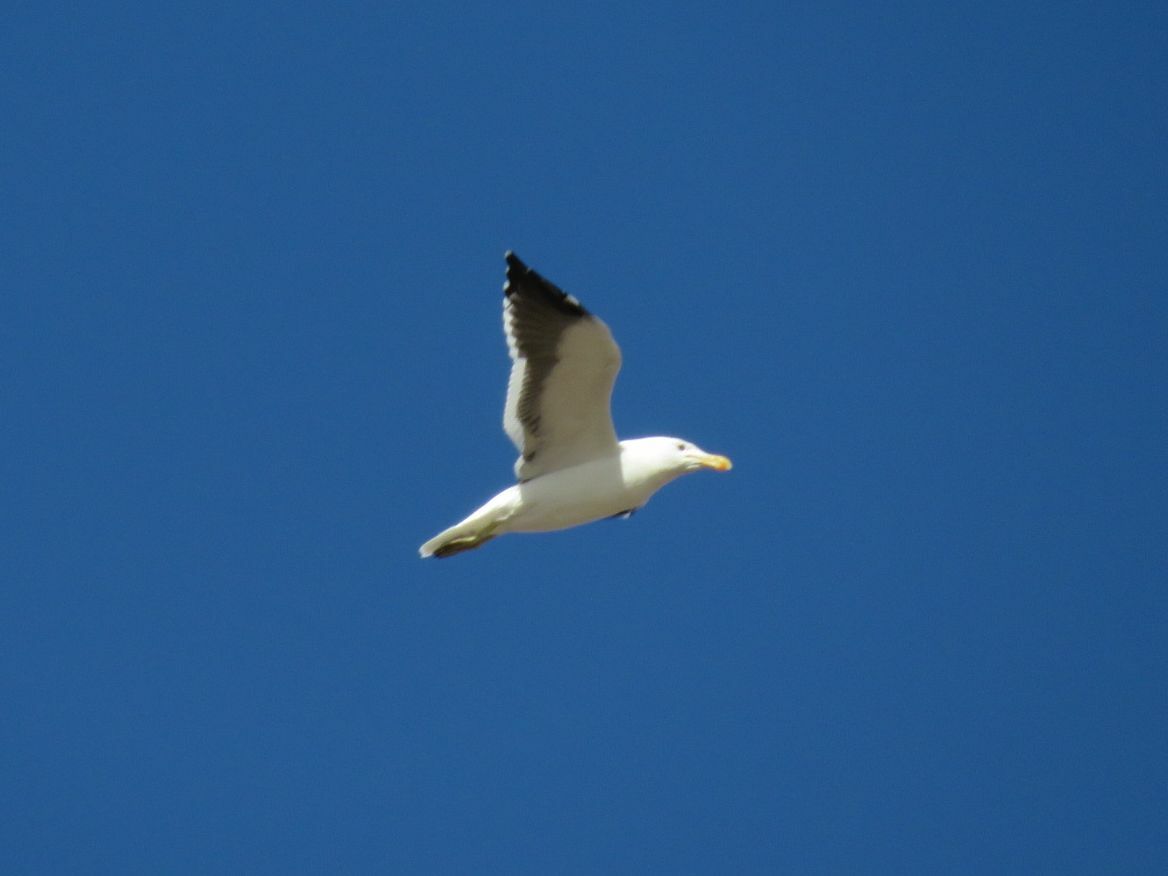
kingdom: Animalia
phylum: Chordata
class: Aves
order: Charadriiformes
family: Laridae
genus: Larus
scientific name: Larus dominicanus
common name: Kelp gull
